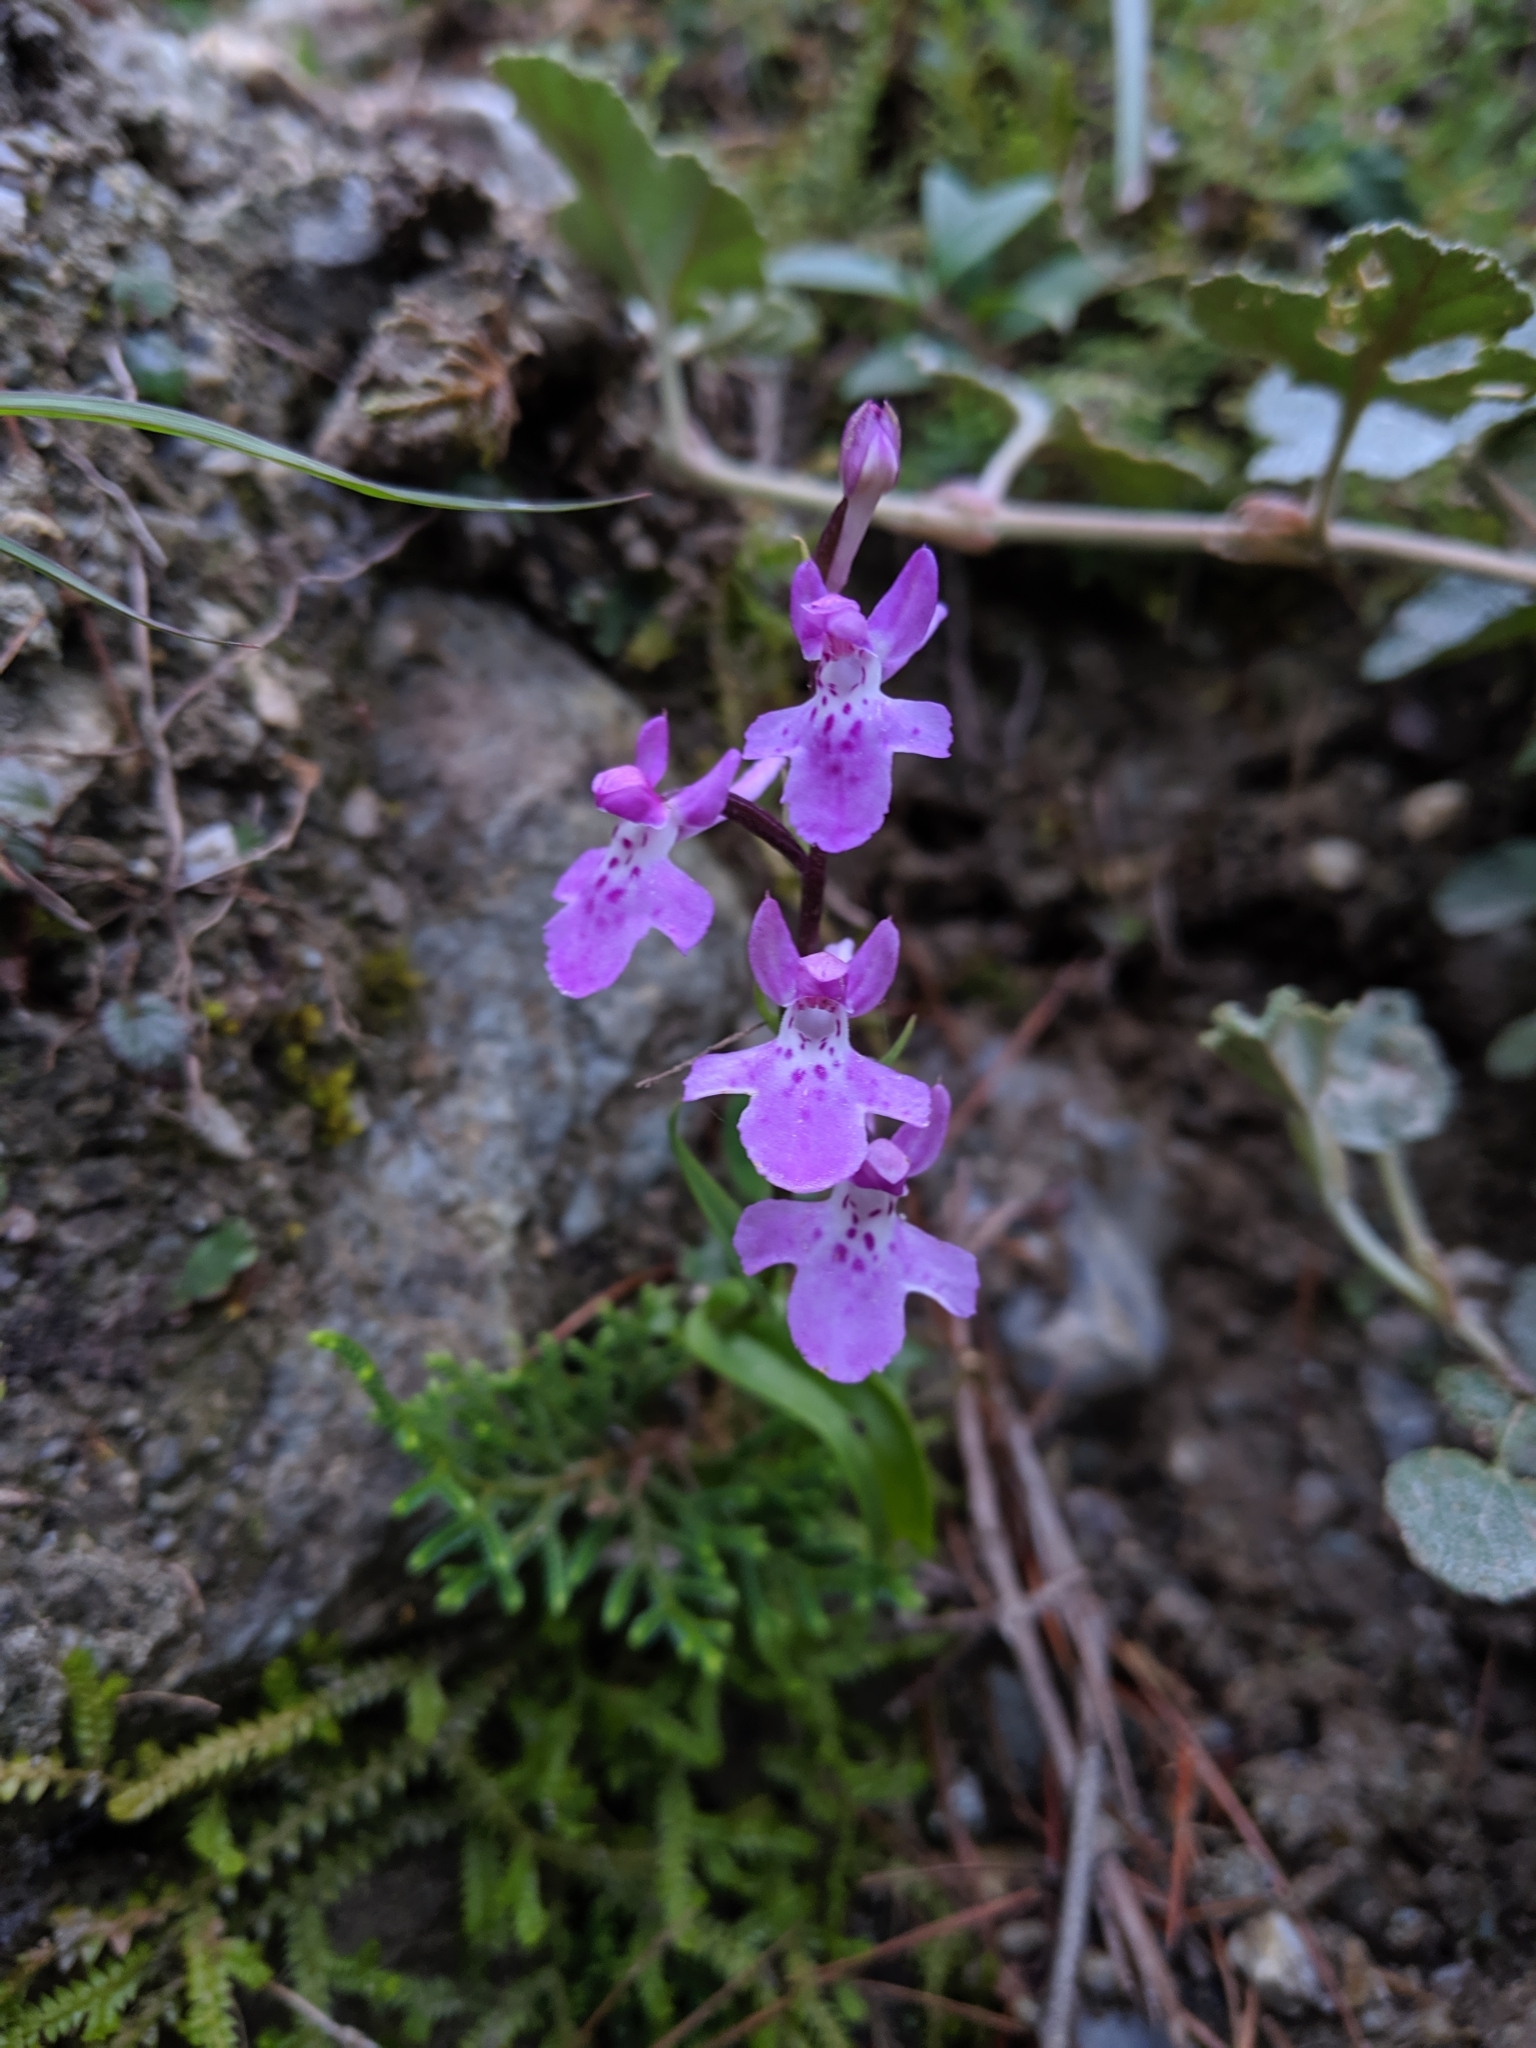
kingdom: Plantae
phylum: Tracheophyta
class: Liliopsida
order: Asparagales
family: Orchidaceae
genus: Hemipilia
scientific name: Hemipilia kiraishiensis
